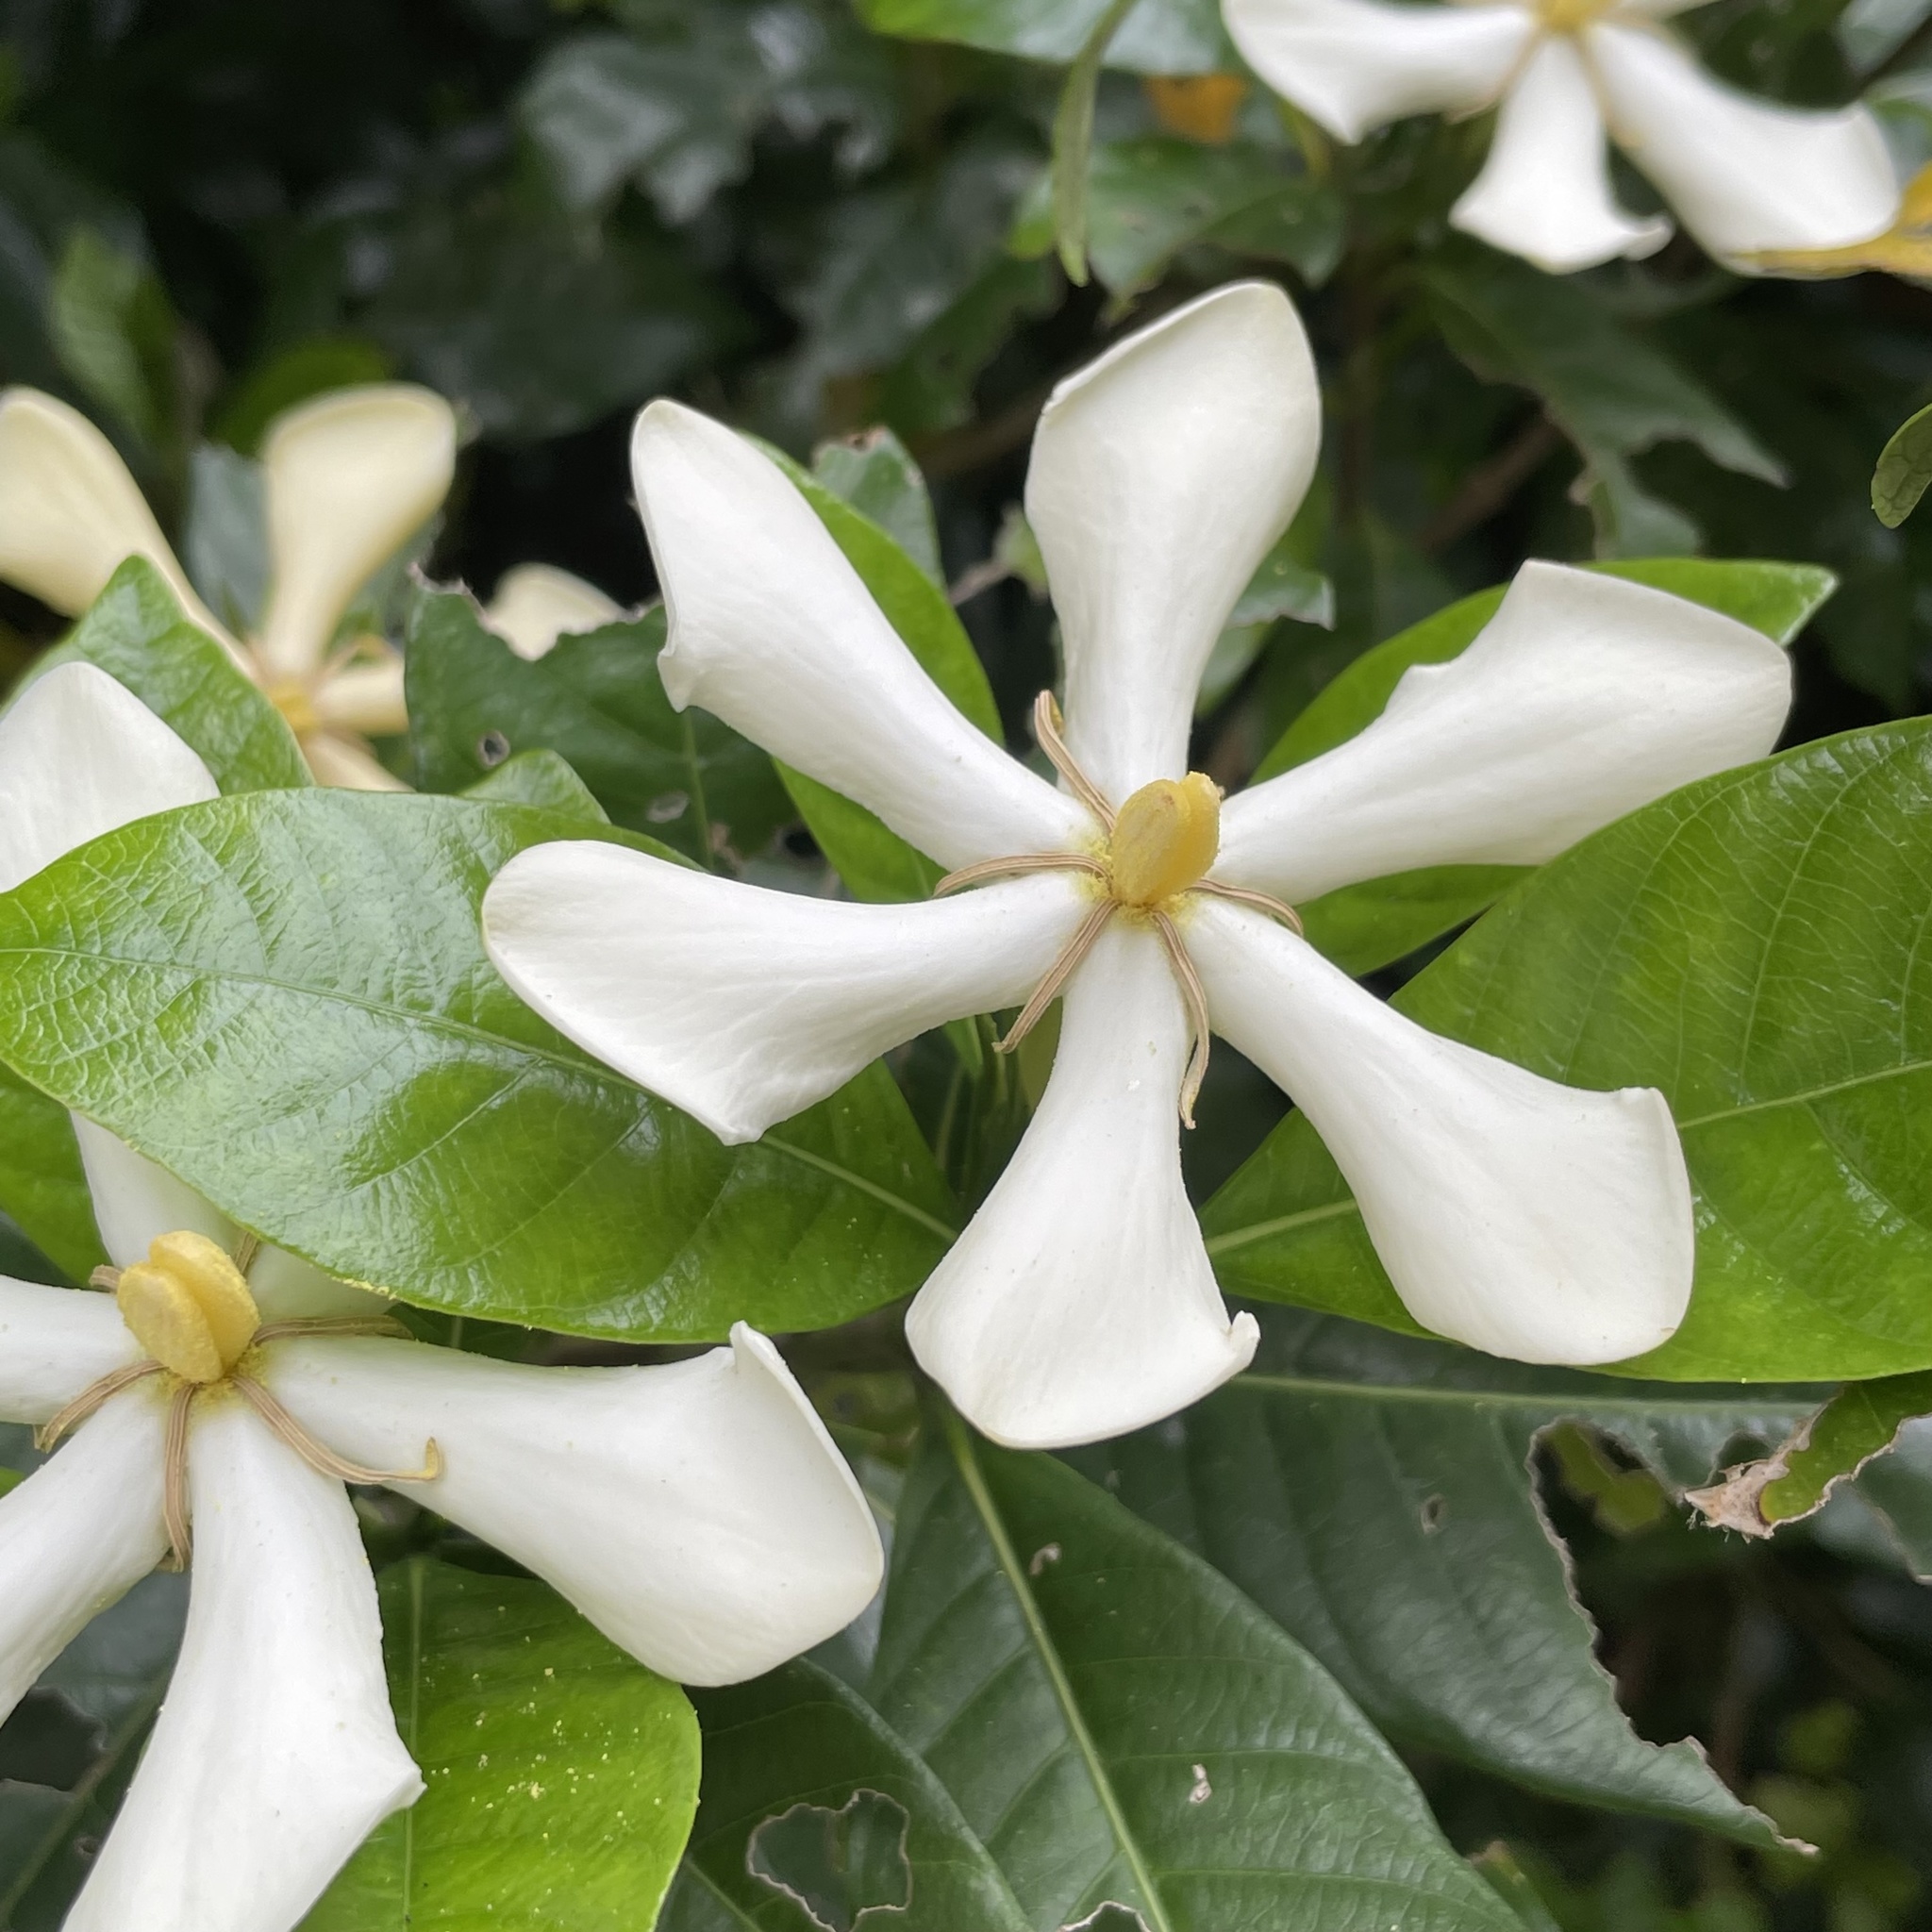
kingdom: Plantae
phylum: Tracheophyta
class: Magnoliopsida
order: Gentianales
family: Rubiaceae
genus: Gardenia
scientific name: Gardenia jasminoides
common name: Cape-jasmine
